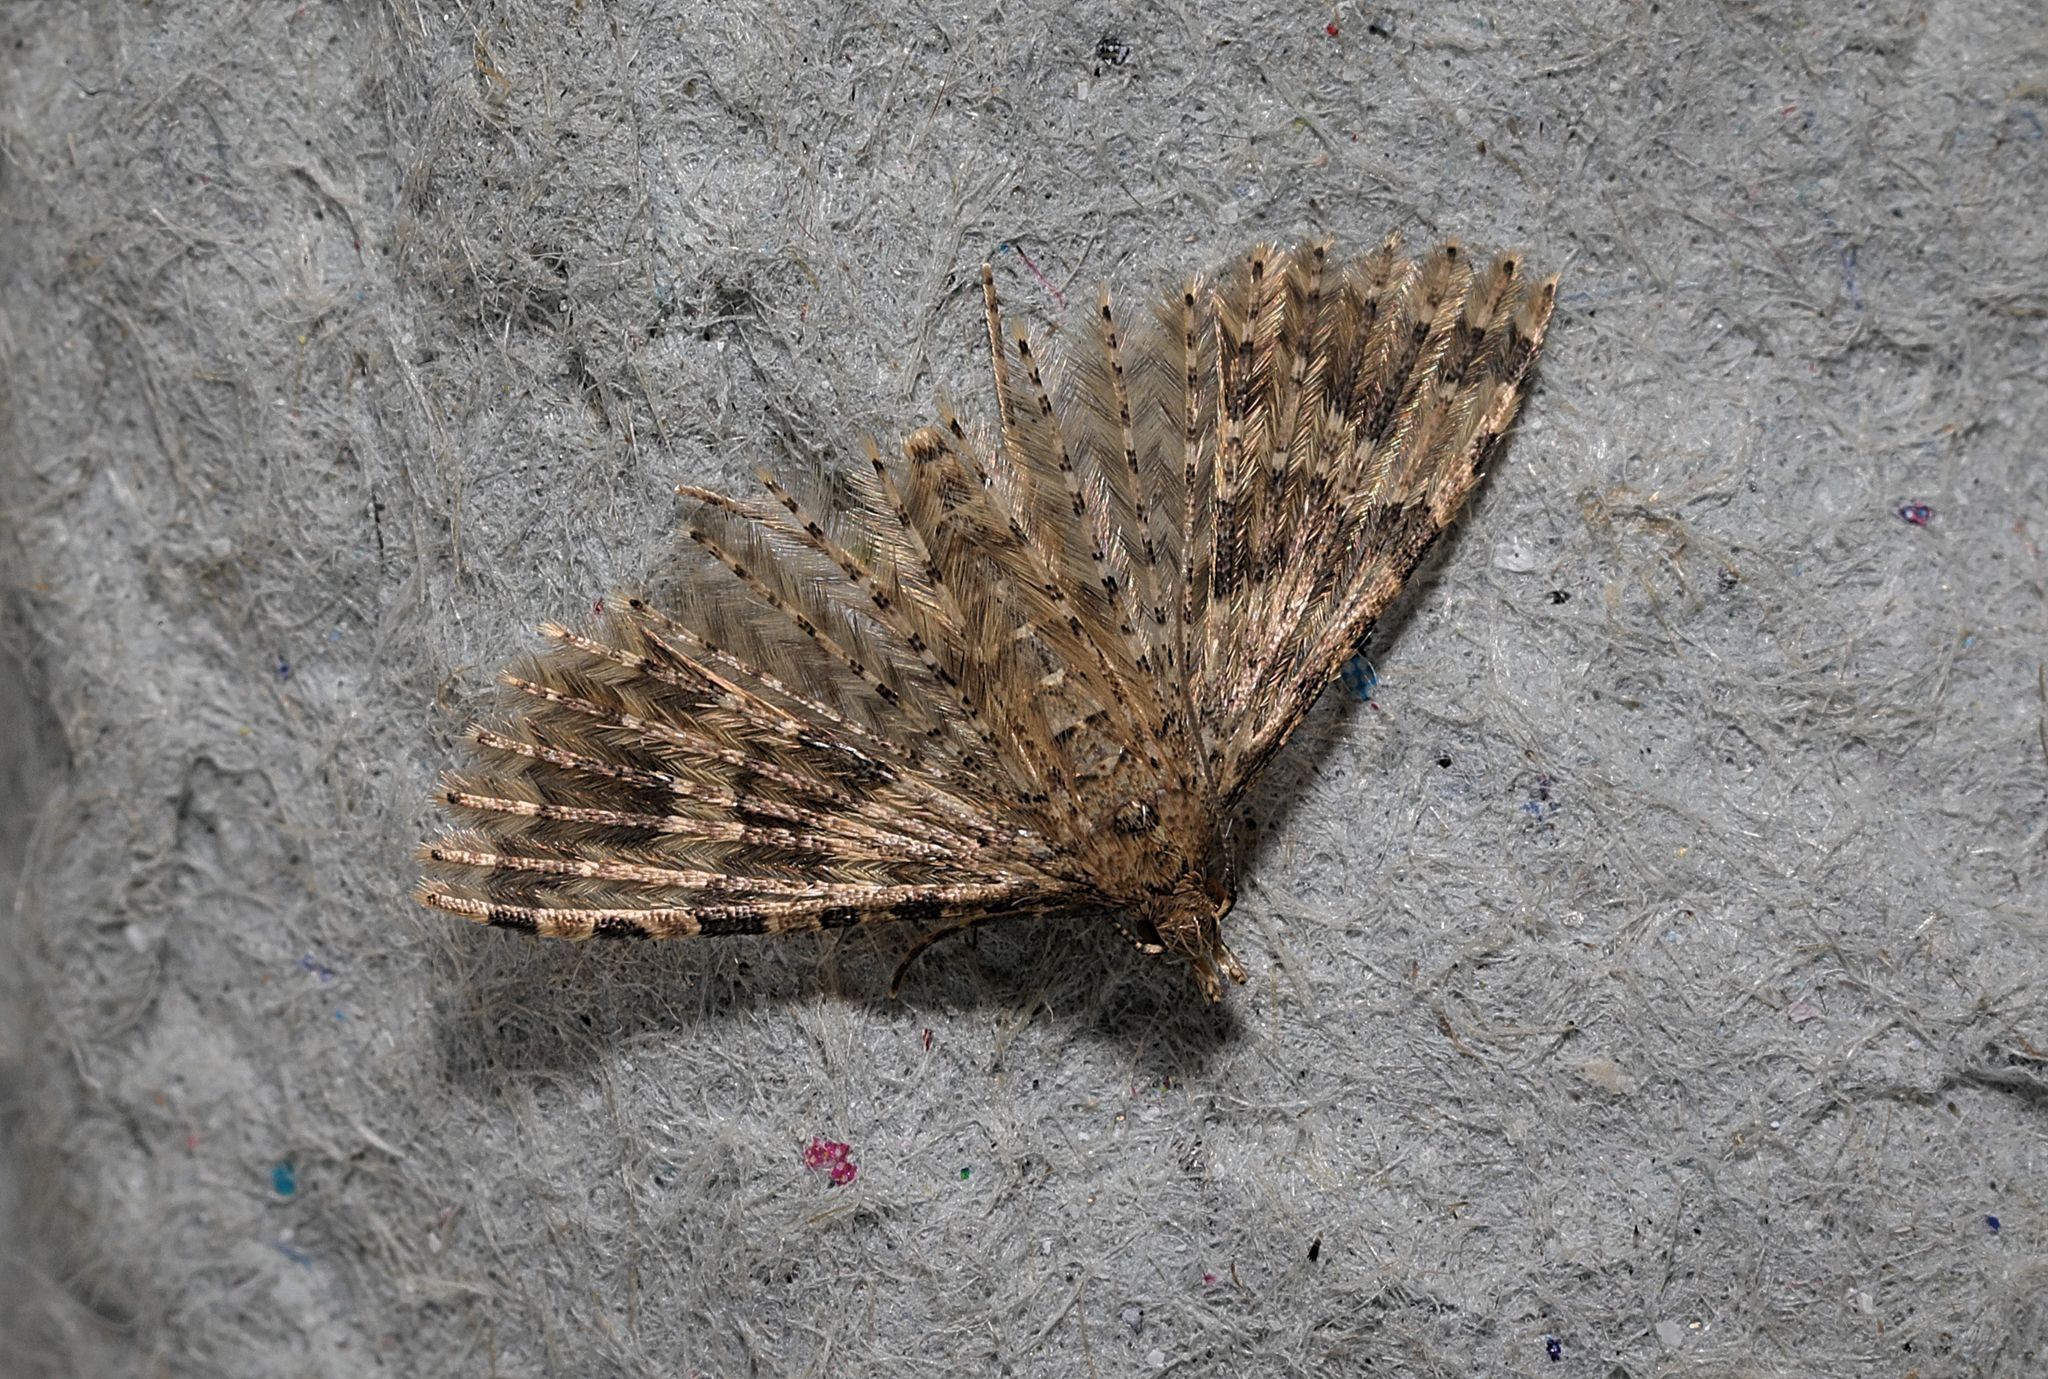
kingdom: Animalia
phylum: Arthropoda
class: Insecta
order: Lepidoptera
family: Alucitidae
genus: Alucita
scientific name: Alucita hexadactyla
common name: Twenty-plume moth
